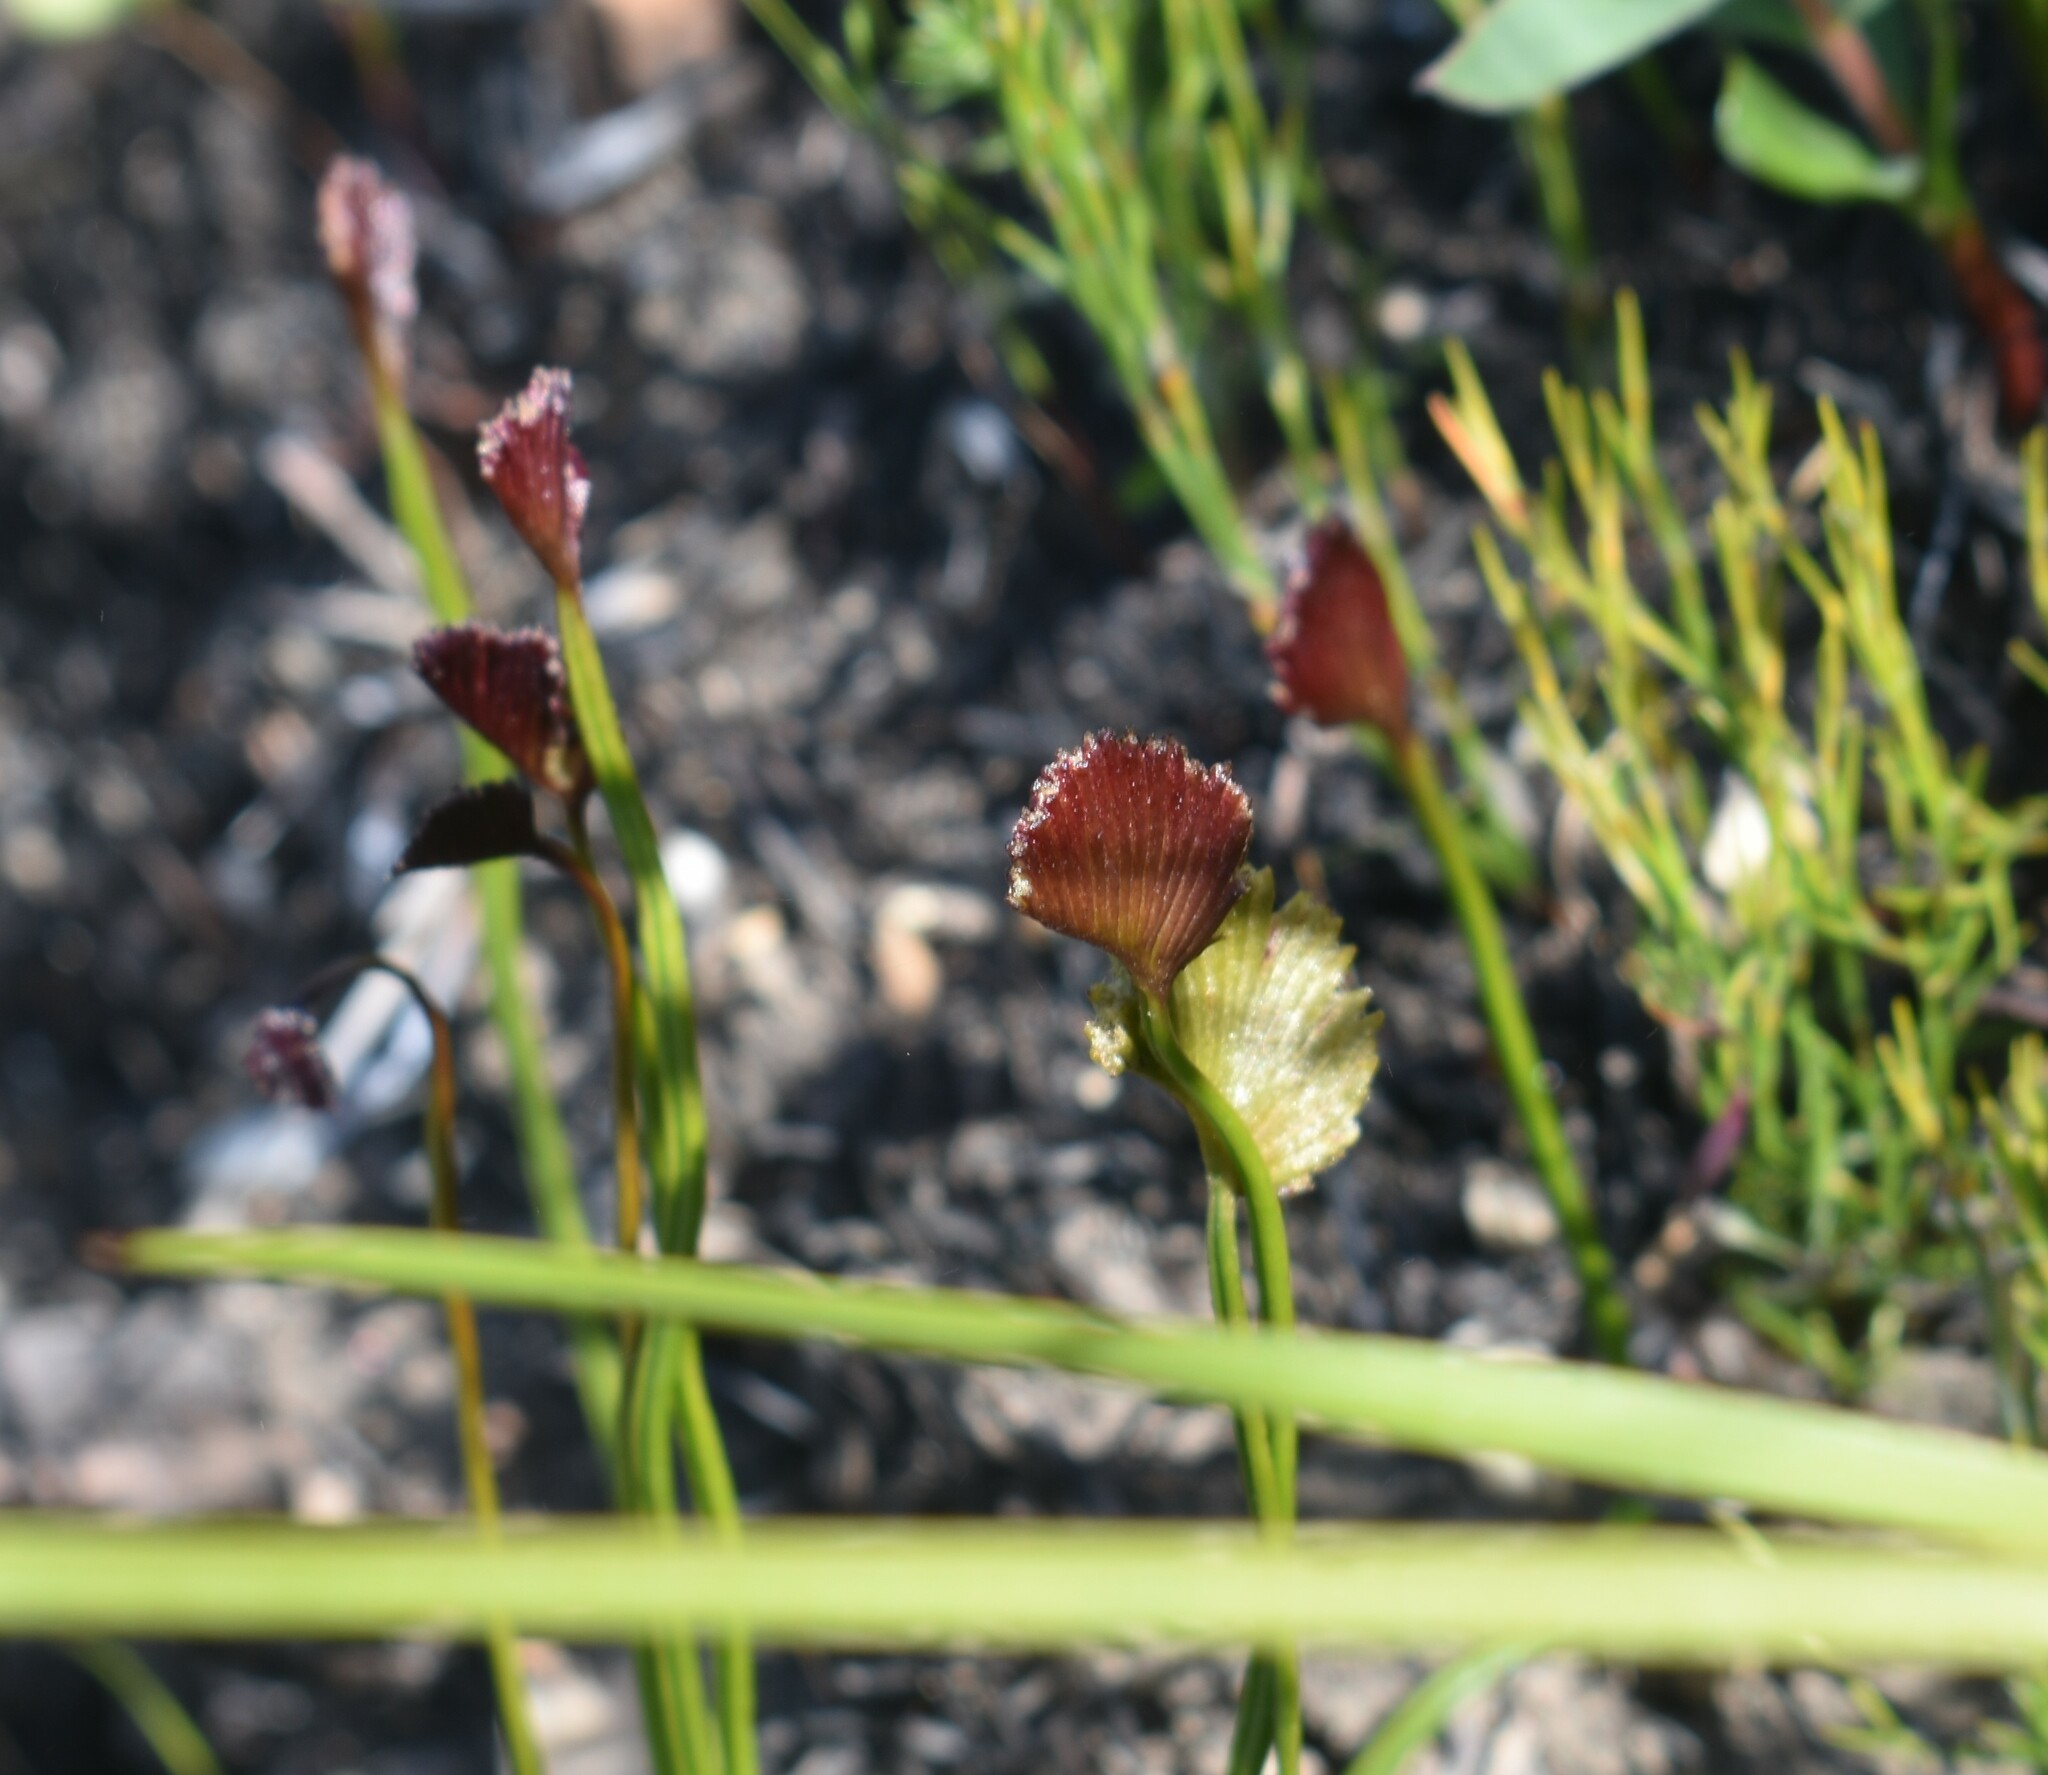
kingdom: Plantae
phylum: Tracheophyta
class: Polypodiopsida
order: Schizaeales
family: Schizaeaceae
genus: Schizaea
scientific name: Schizaea pectinata
